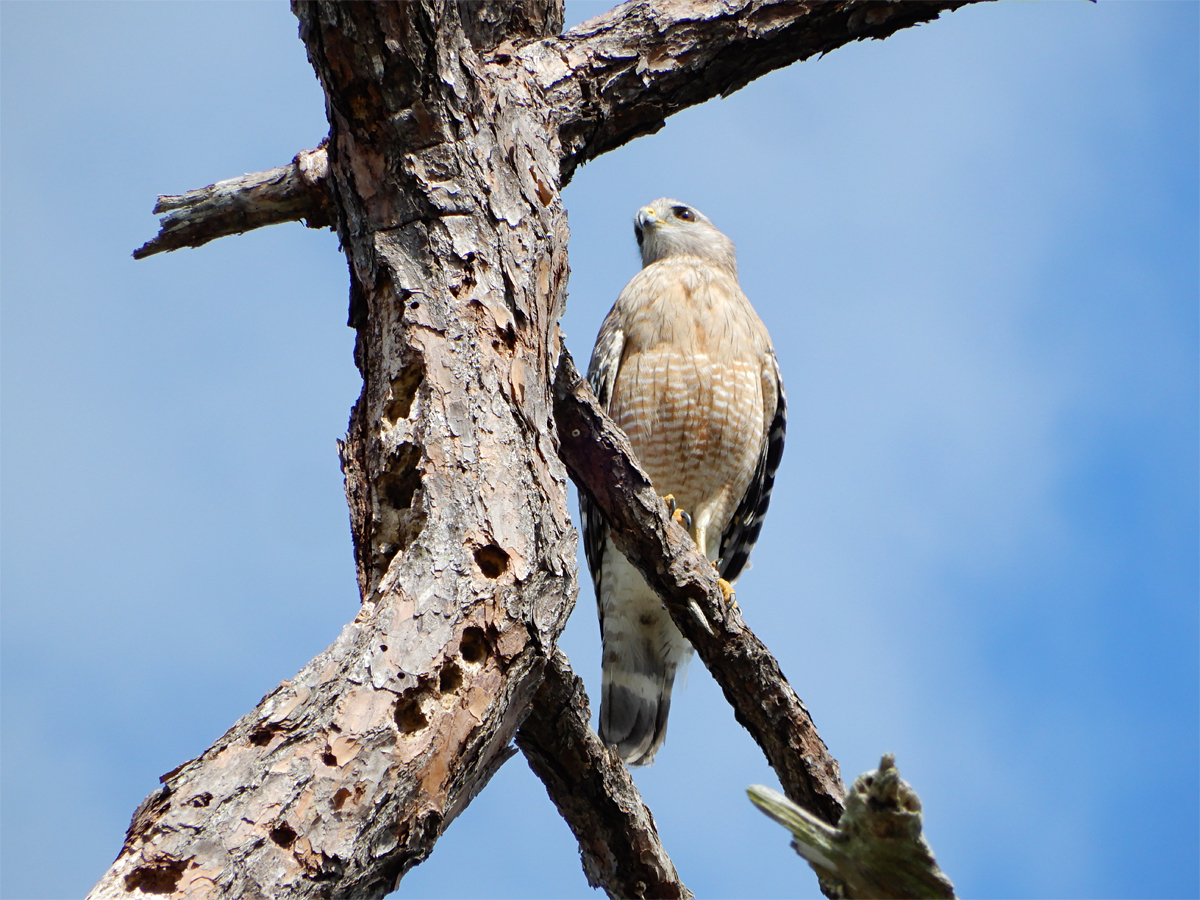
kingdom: Animalia
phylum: Chordata
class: Aves
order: Accipitriformes
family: Accipitridae
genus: Buteo
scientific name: Buteo lineatus
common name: Red-shouldered hawk
